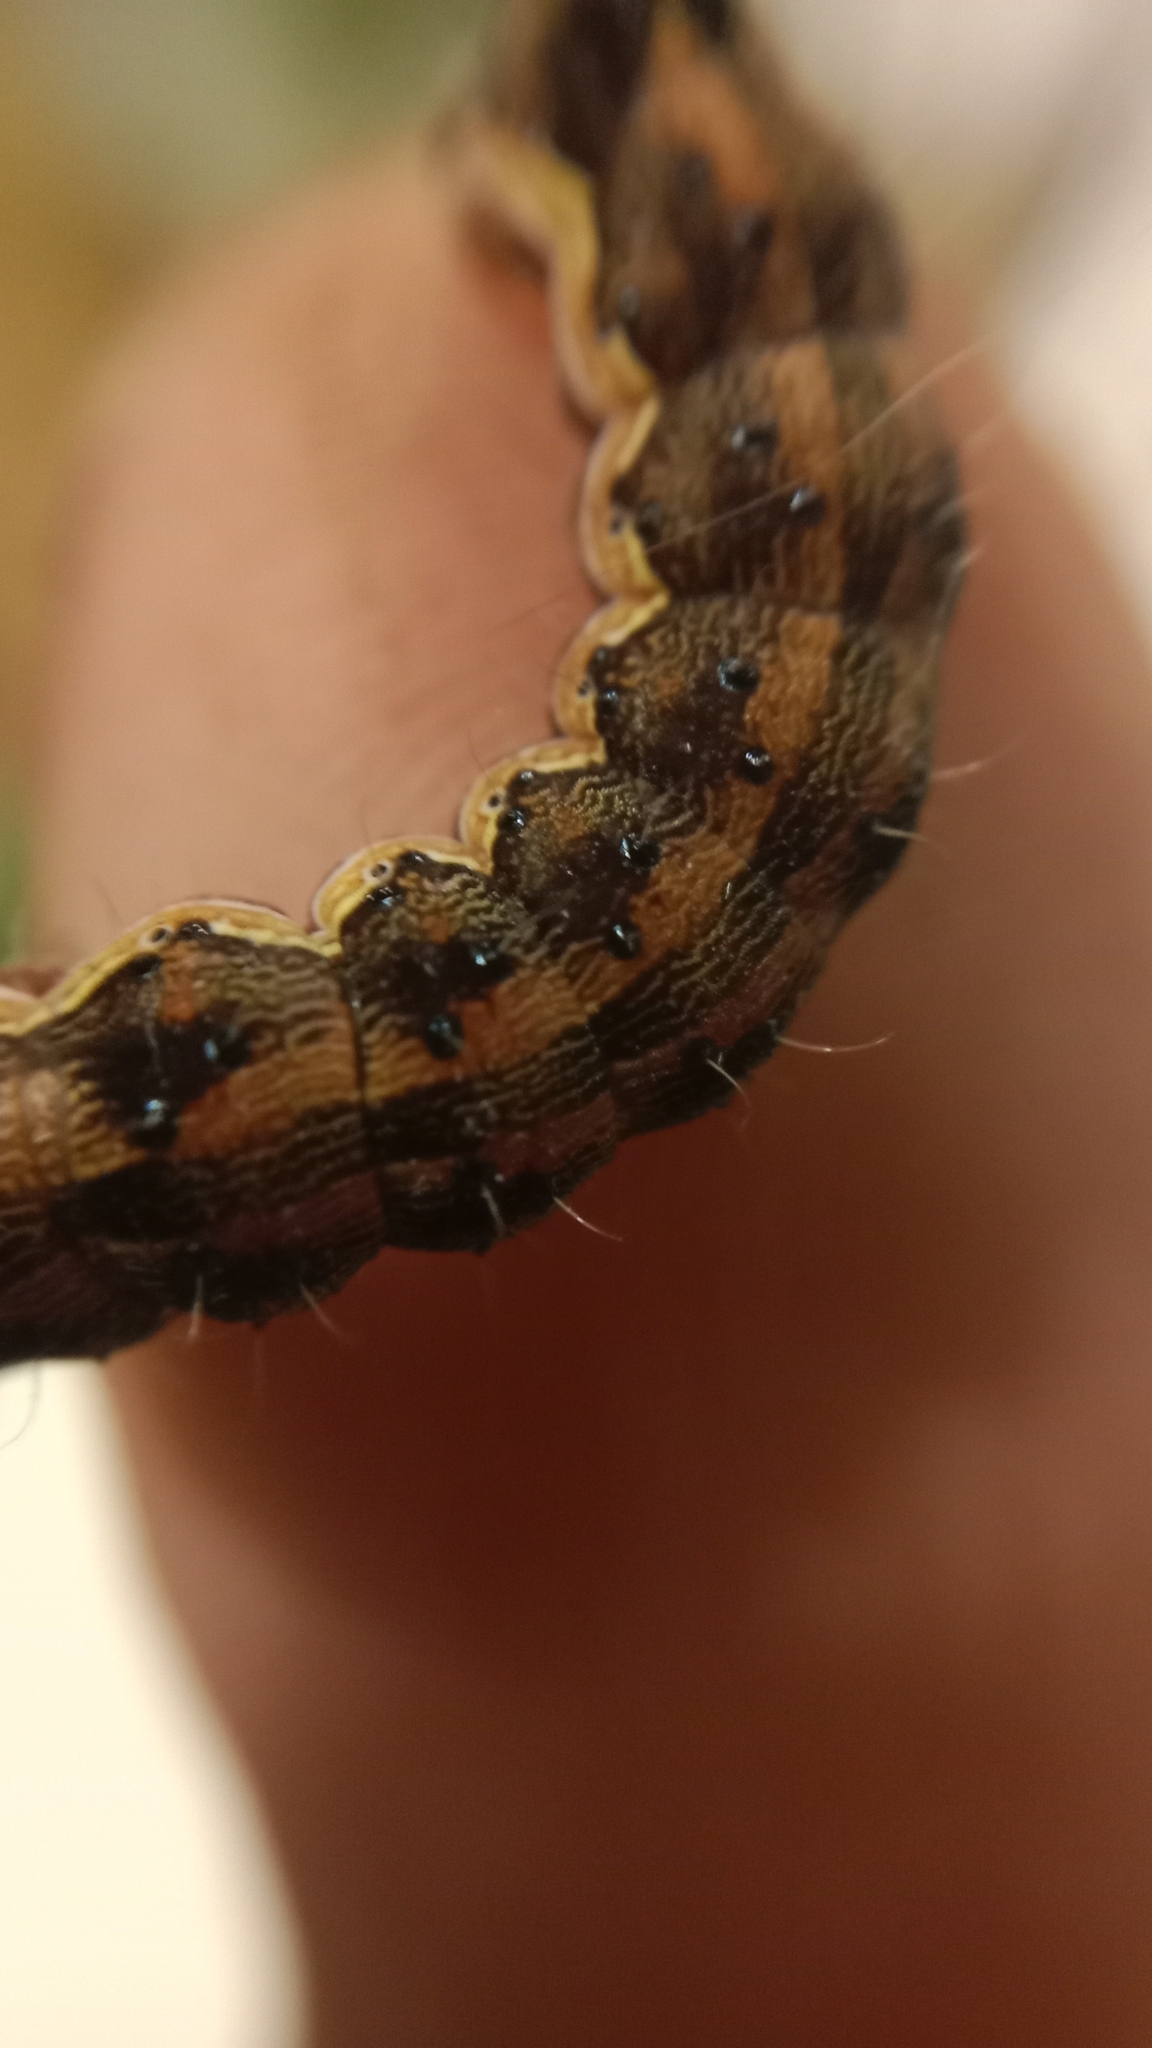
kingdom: Animalia
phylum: Arthropoda
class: Insecta
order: Lepidoptera
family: Noctuidae
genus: Helicoverpa
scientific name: Helicoverpa armigera
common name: Cotton bollworm
